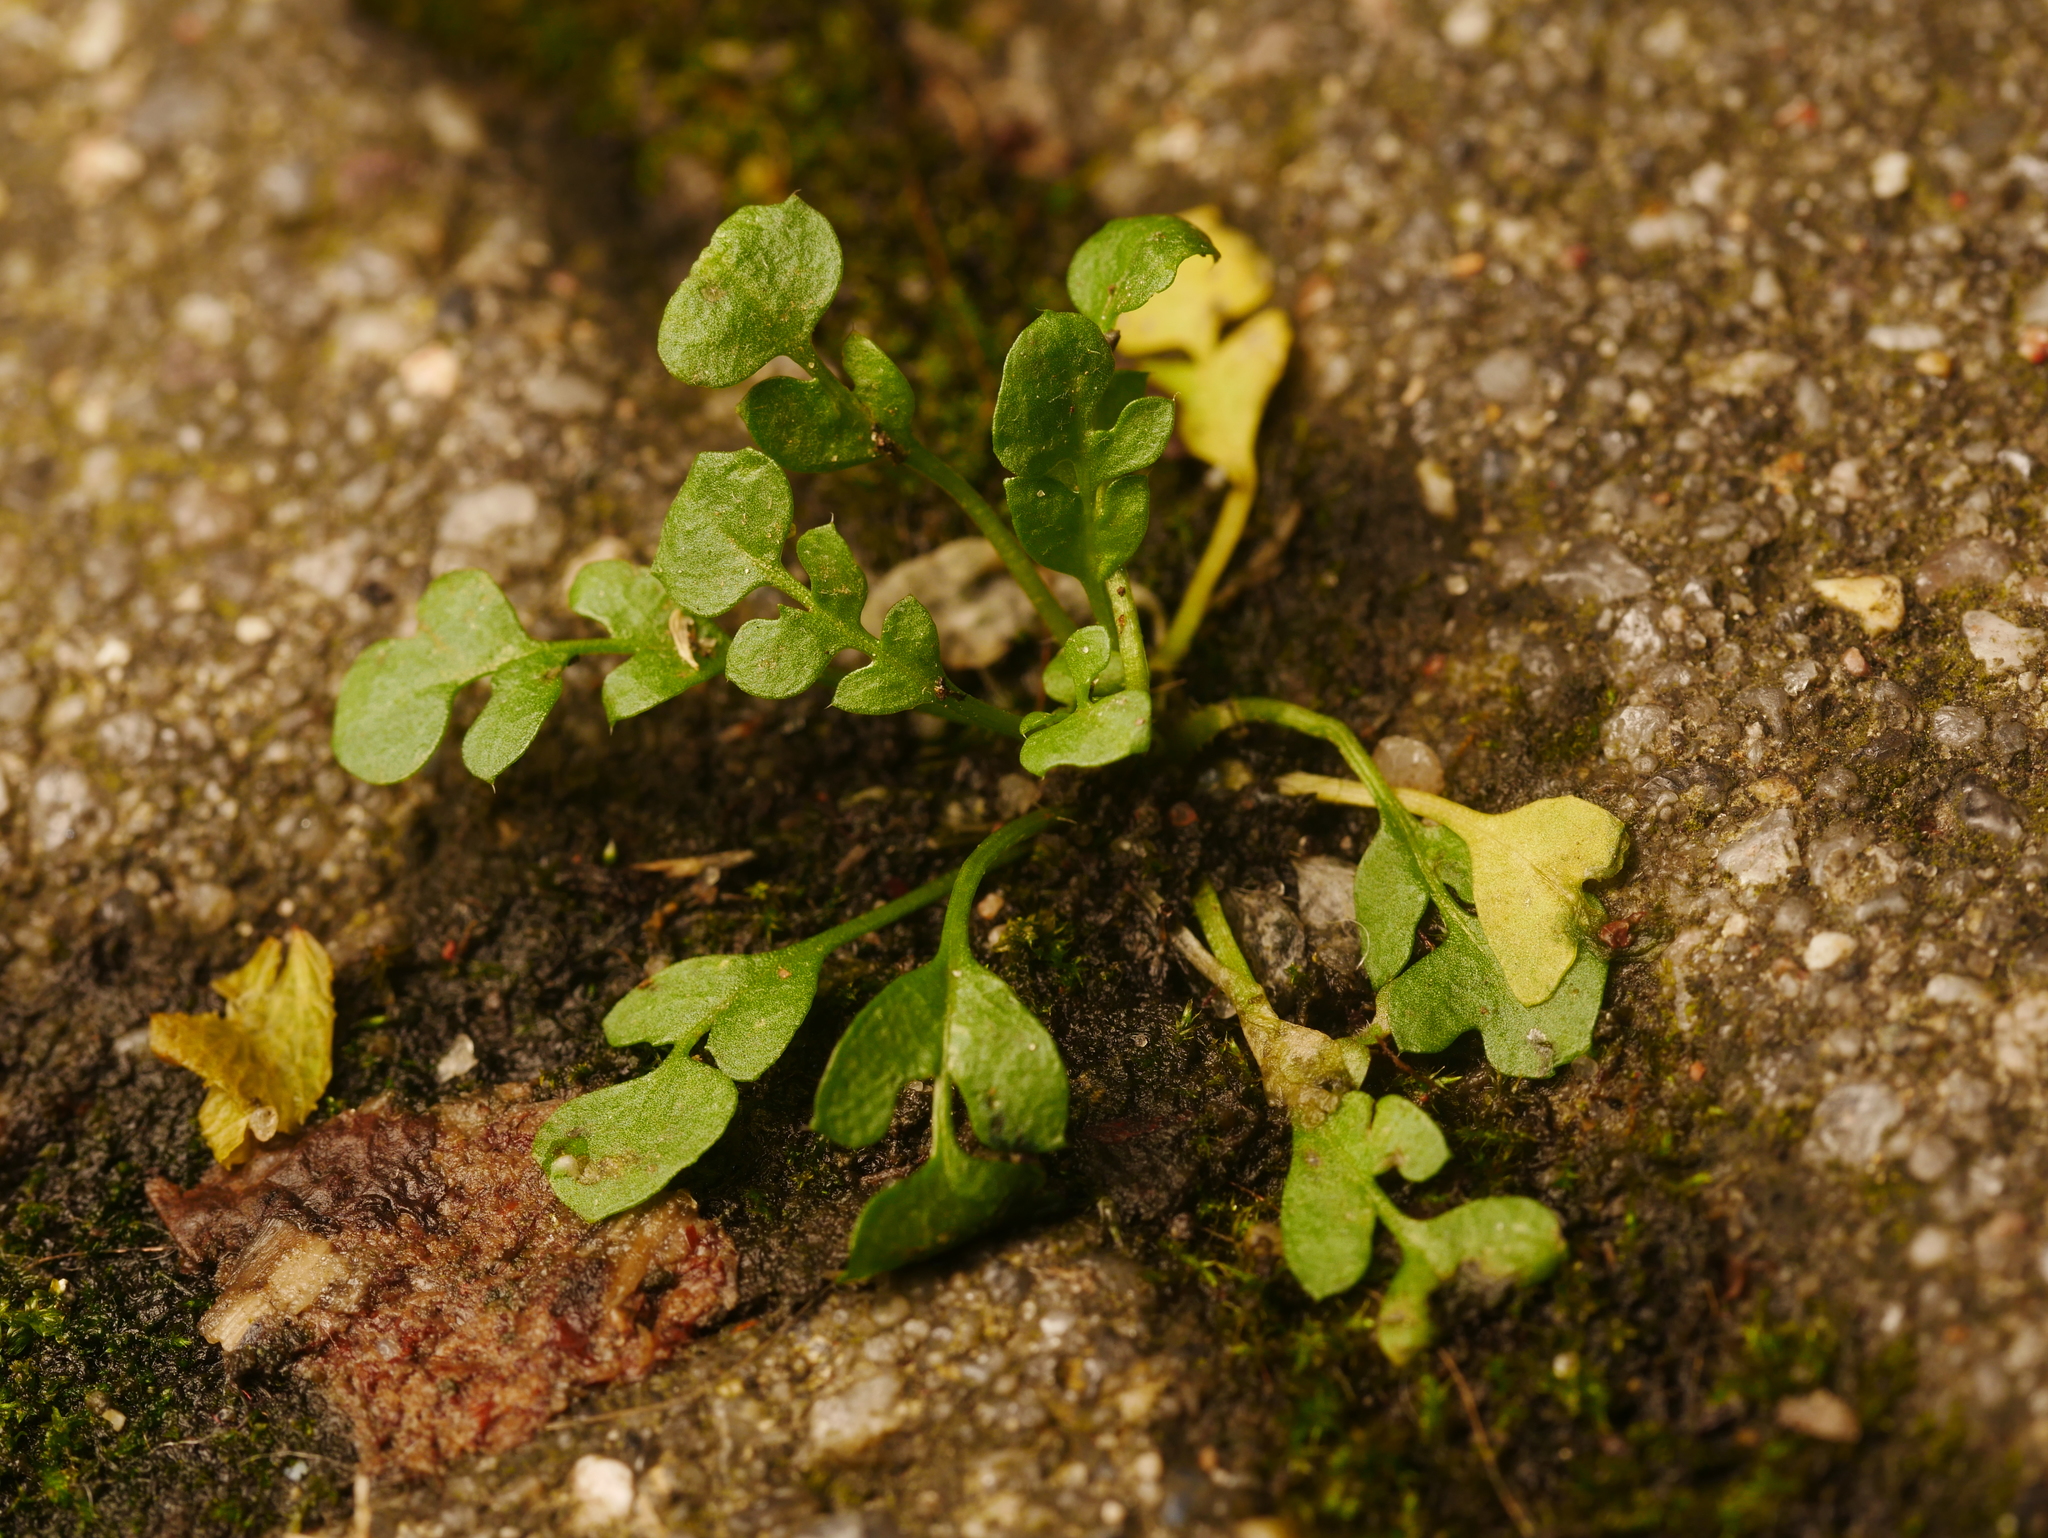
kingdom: Plantae
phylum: Tracheophyta
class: Magnoliopsida
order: Brassicales
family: Brassicaceae
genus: Capsella
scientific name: Capsella bursa-pastoris
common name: Shepherd's purse
